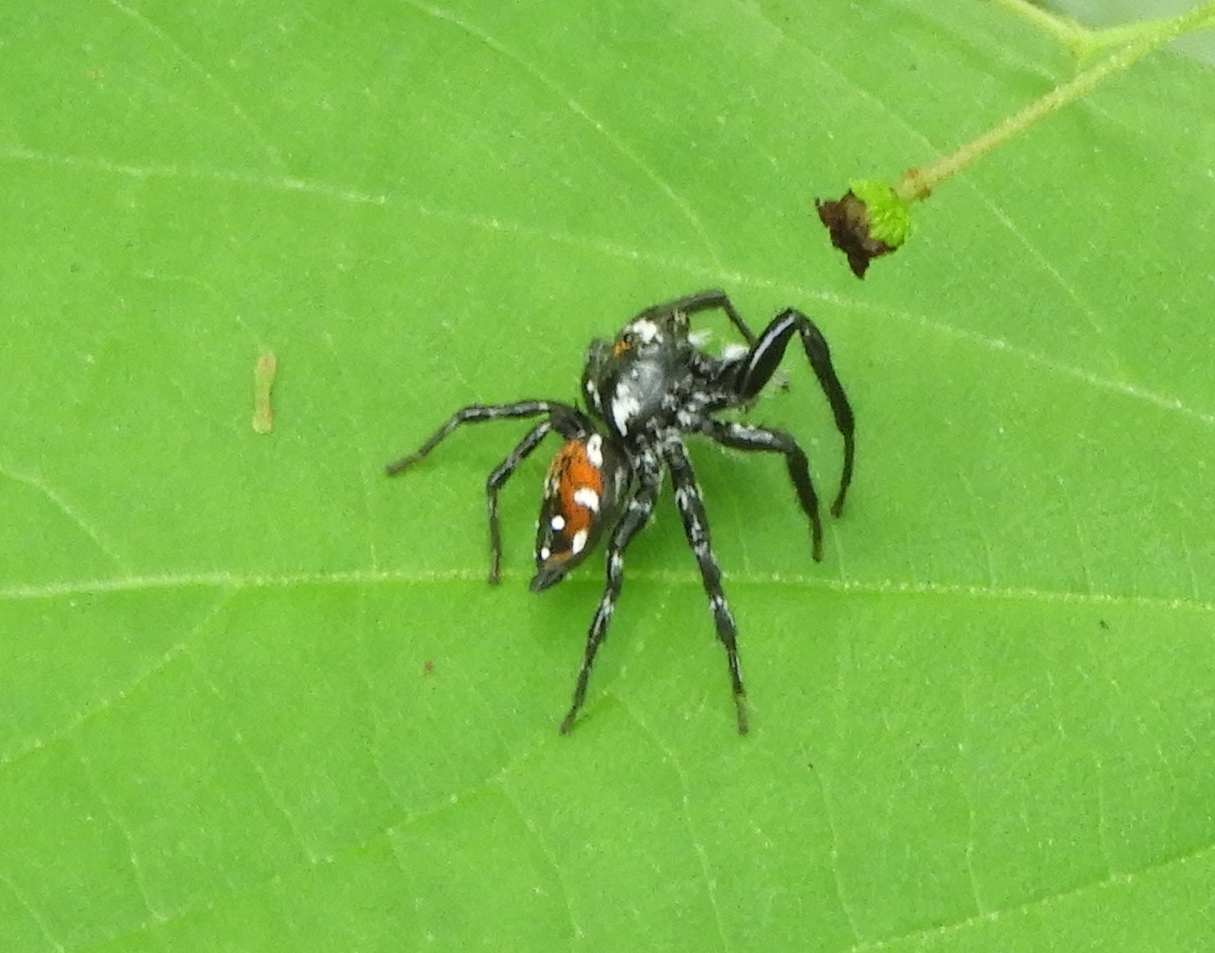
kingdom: Animalia
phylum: Arthropoda
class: Arachnida
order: Araneae
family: Salticidae
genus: Nycerella
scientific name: Nycerella delecta
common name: Jumping spiders
